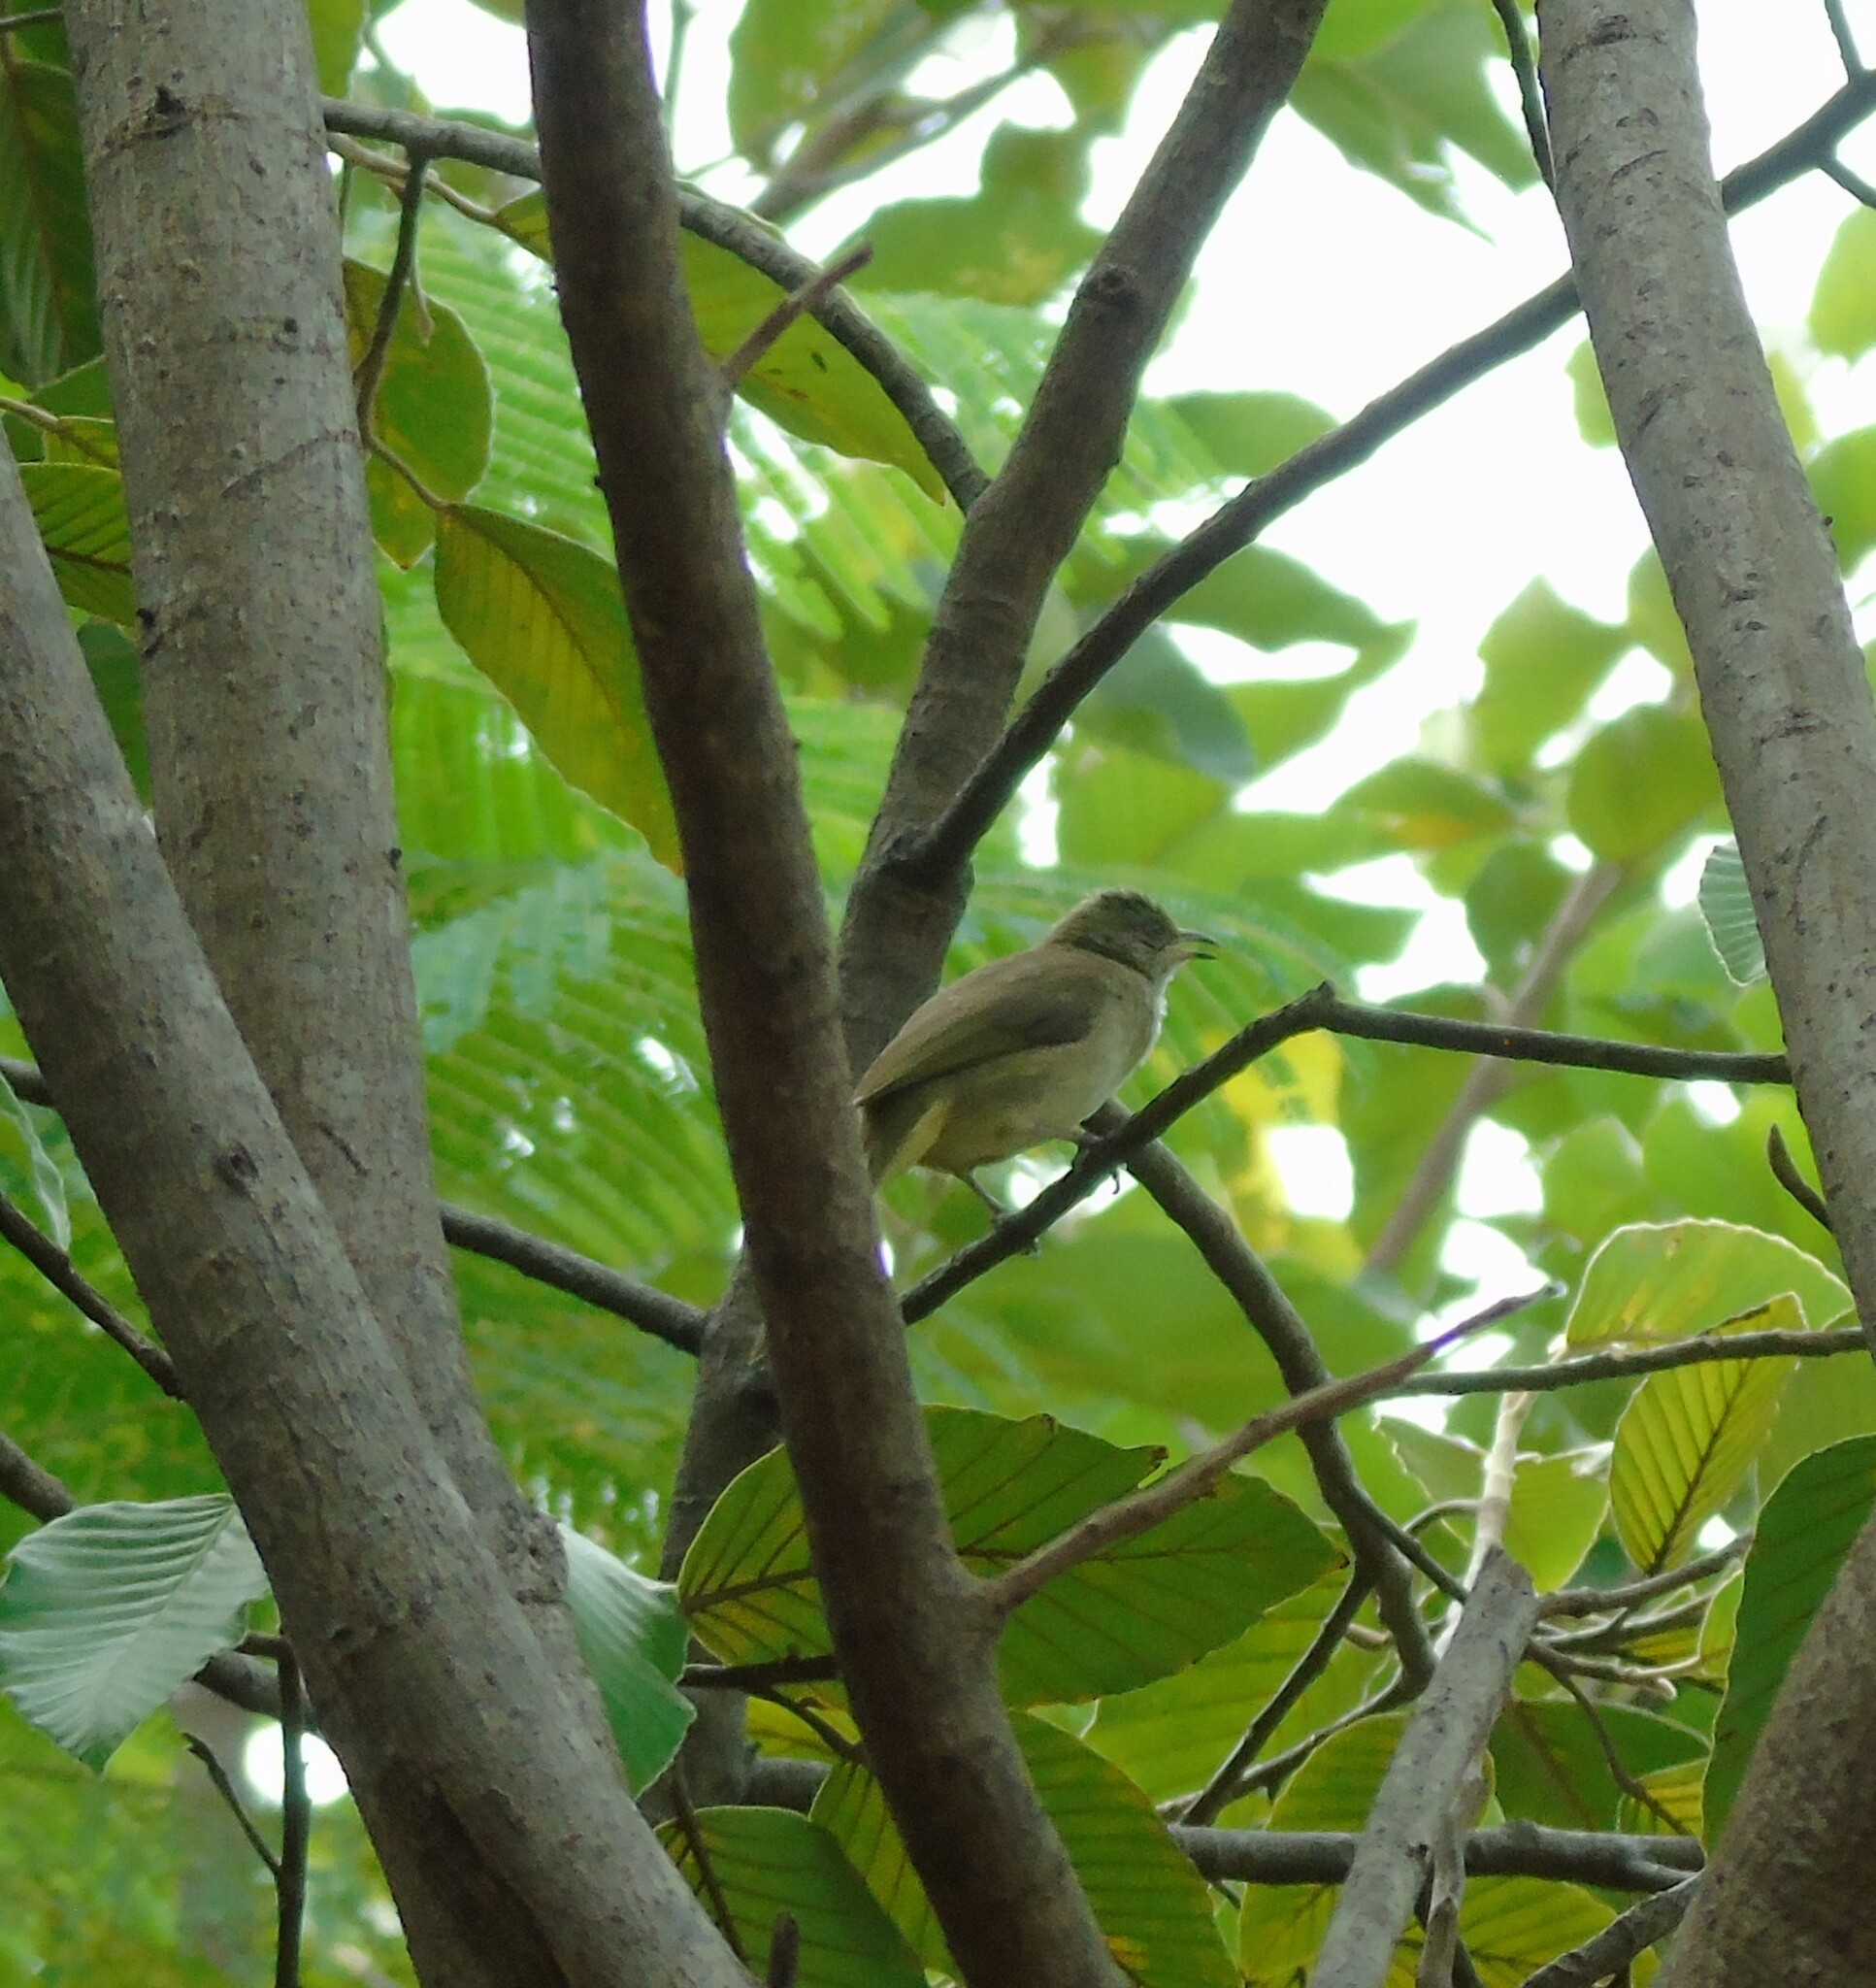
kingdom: Animalia
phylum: Chordata
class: Aves
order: Passeriformes
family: Pycnonotidae
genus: Pycnonotus
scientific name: Pycnonotus blanfordi
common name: Streak-eared bulbul
